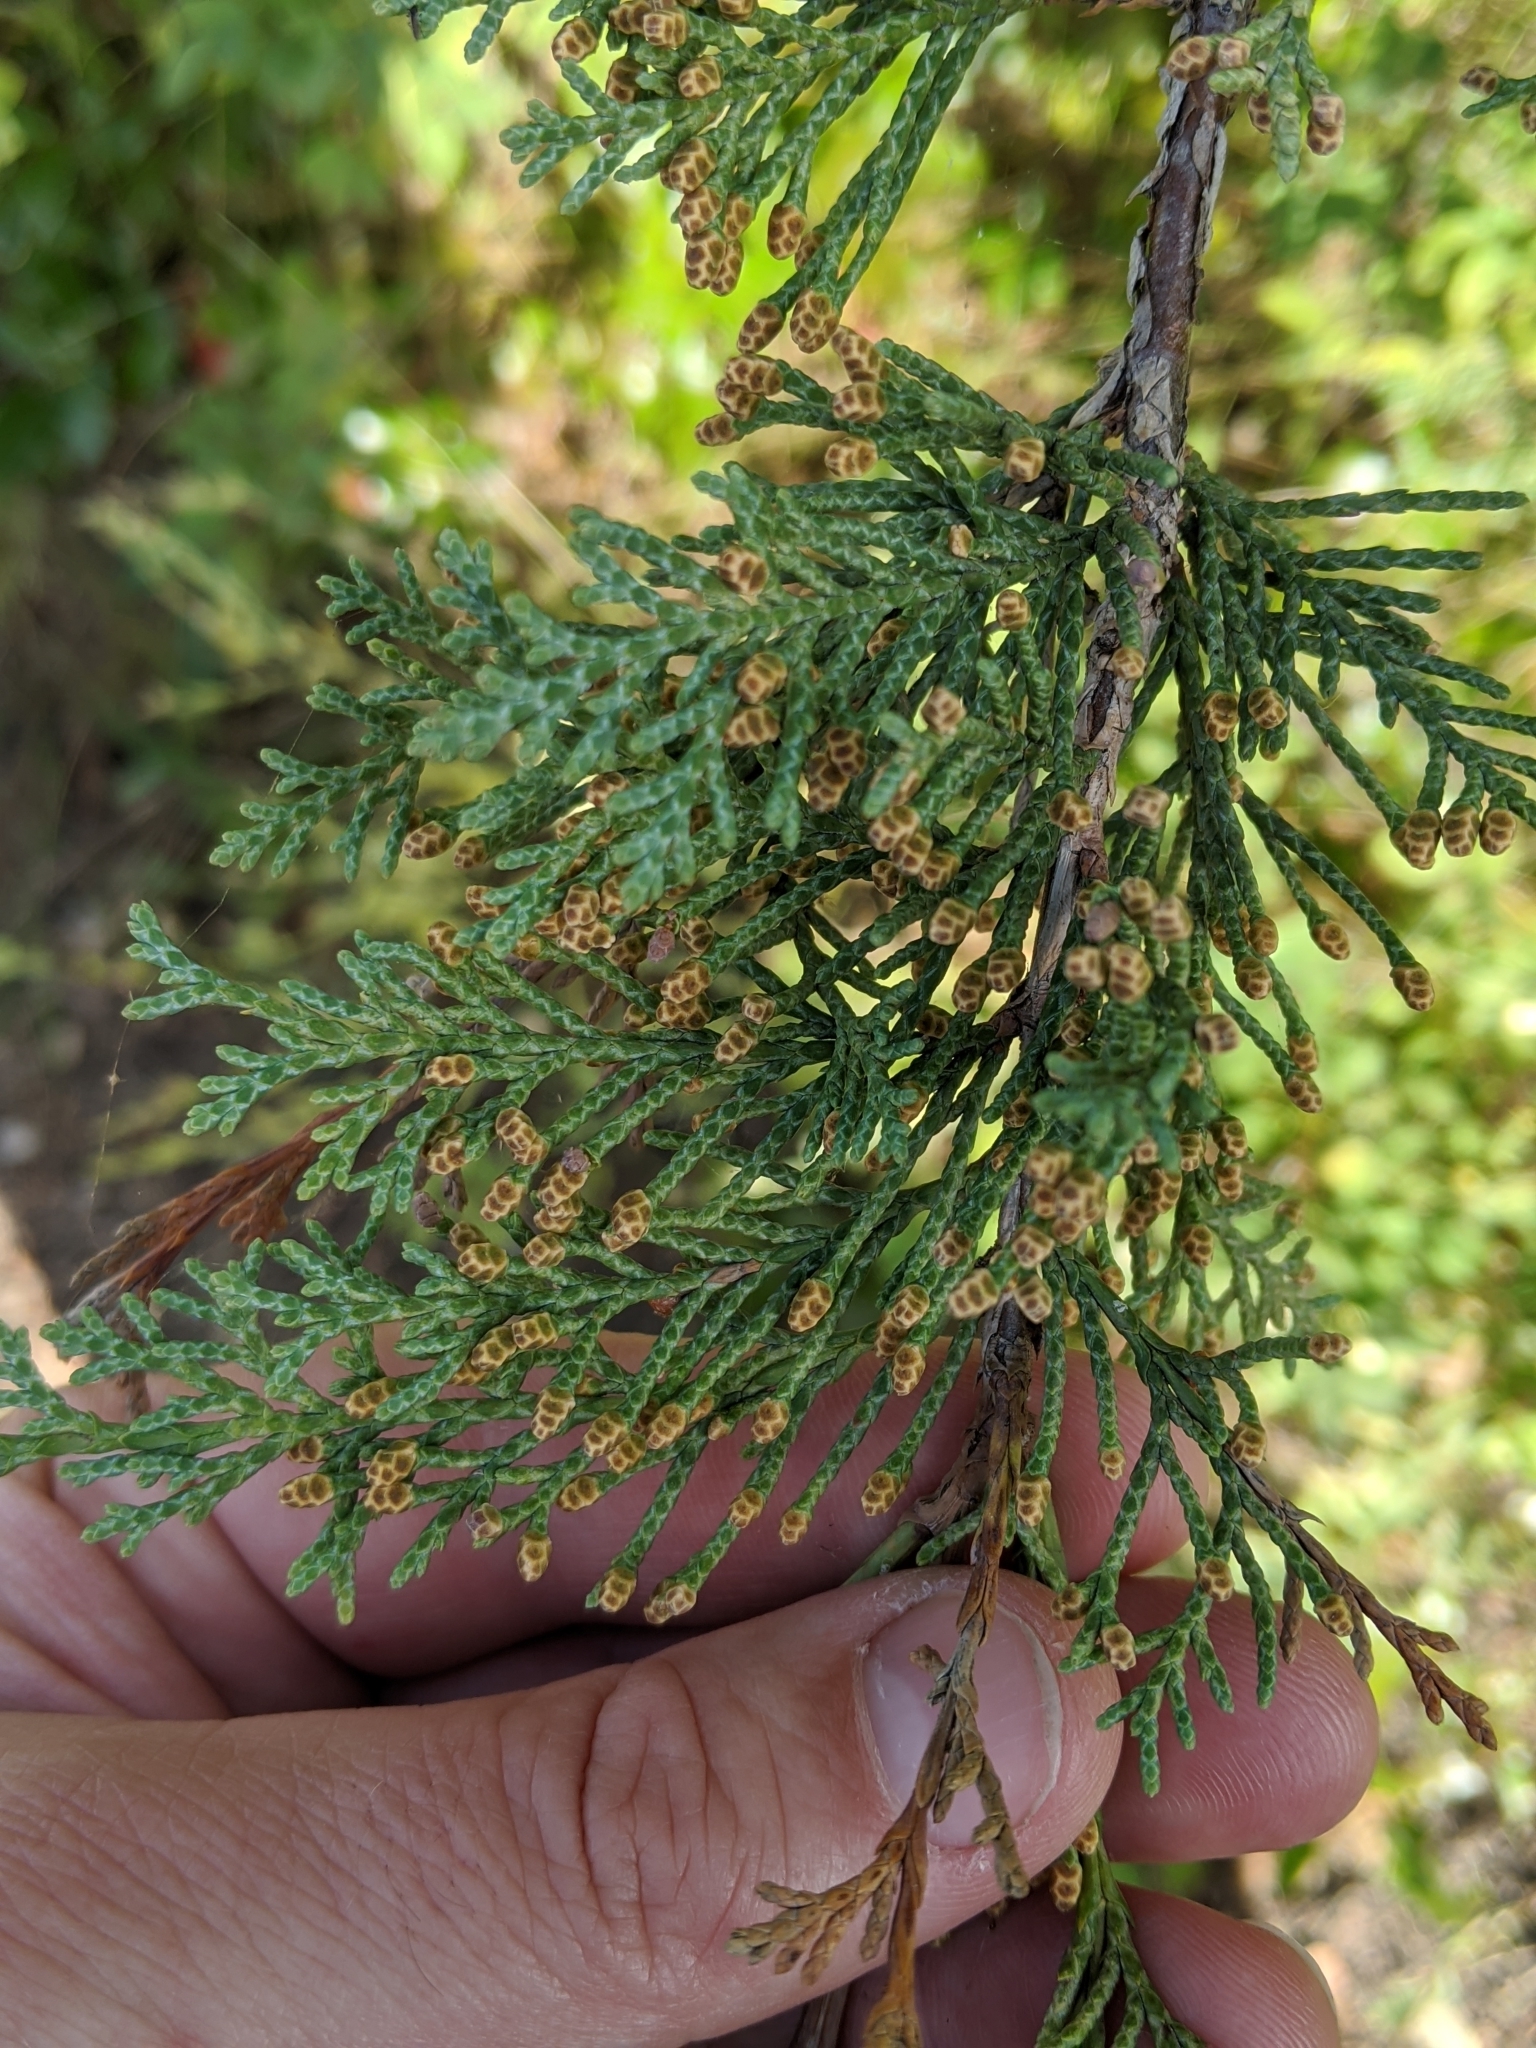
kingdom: Plantae
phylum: Tracheophyta
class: Pinopsida
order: Pinales
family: Cupressaceae
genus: Juniperus
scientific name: Juniperus scopulorum
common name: Rocky mountain juniper
